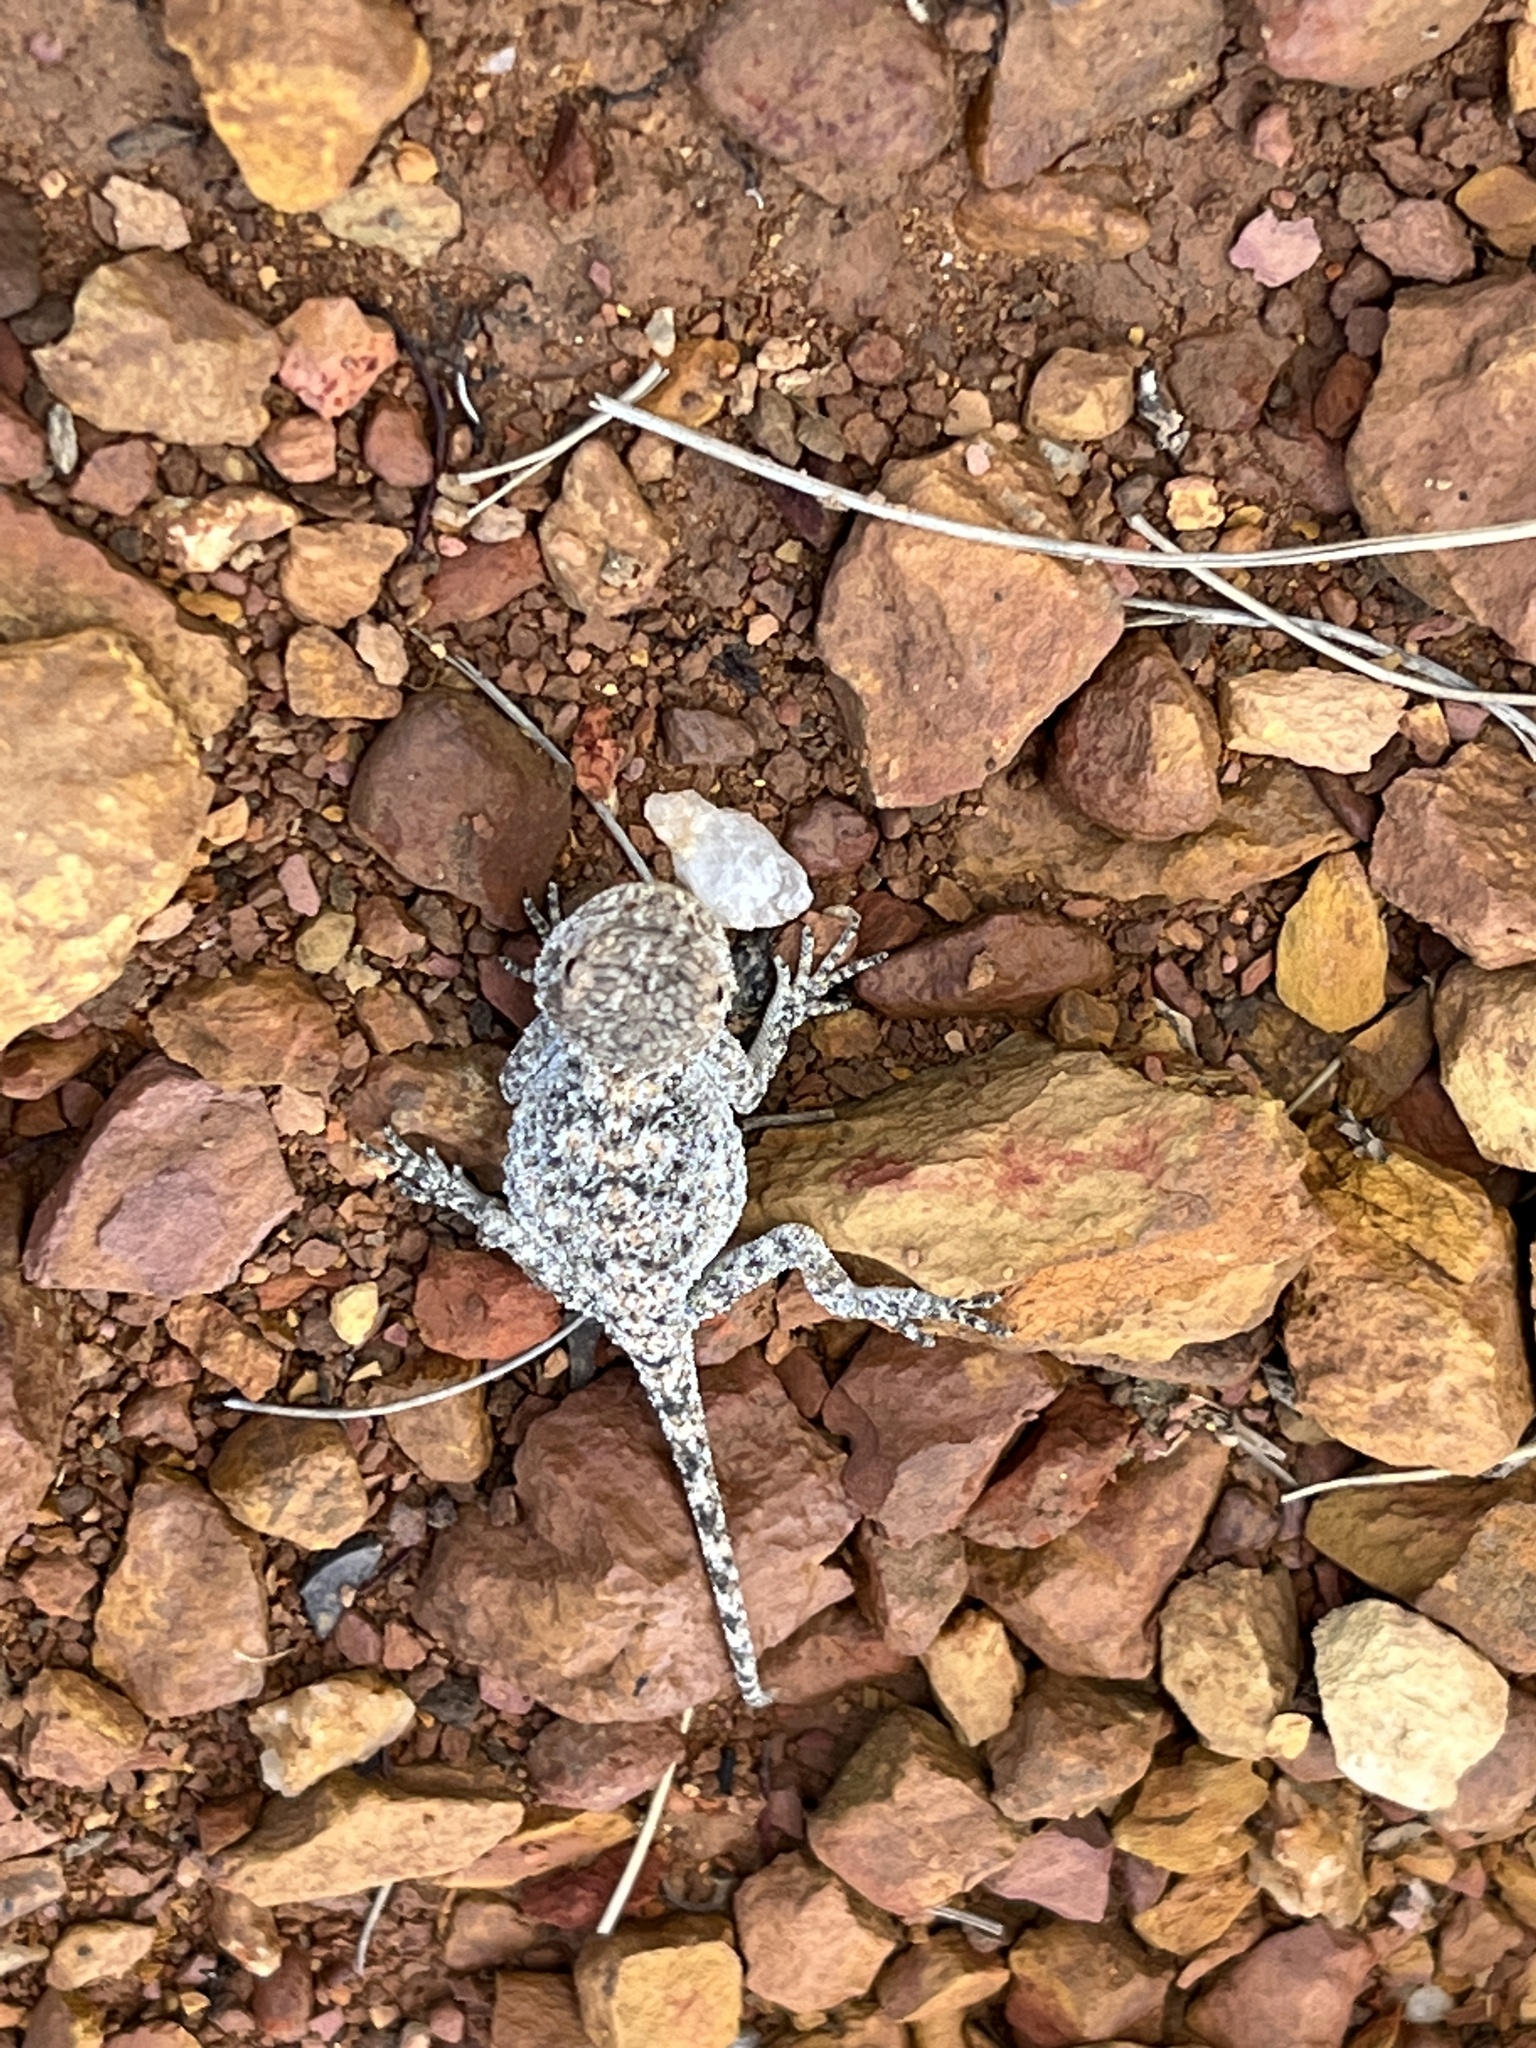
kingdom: Animalia
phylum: Chordata
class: Squamata
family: Agamidae
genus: Agama
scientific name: Agama atra
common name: Southern african rock agama
